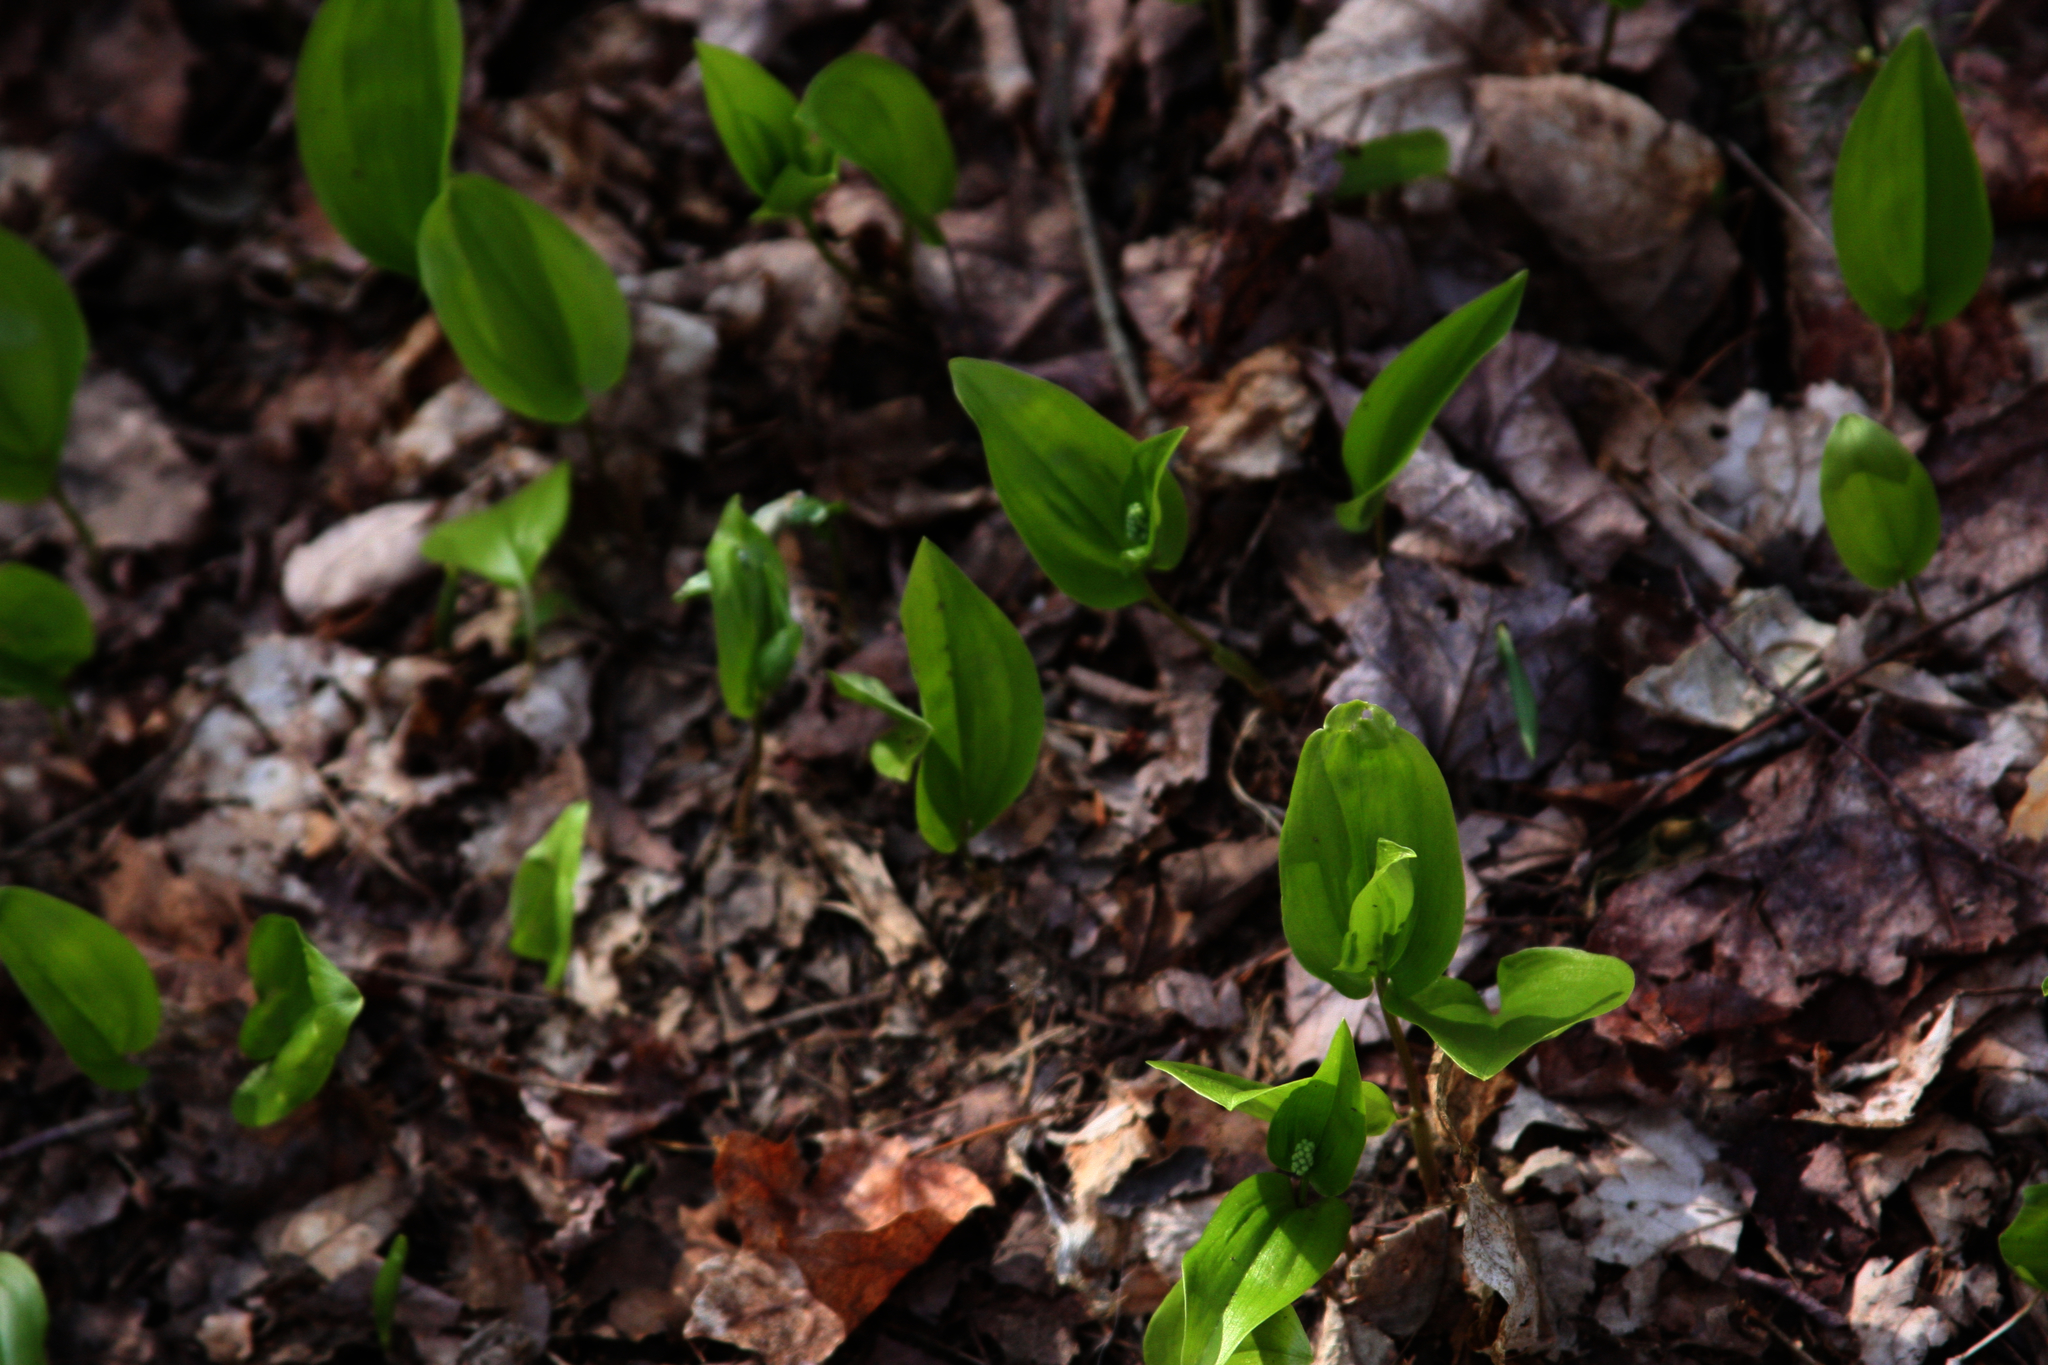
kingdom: Plantae
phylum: Tracheophyta
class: Liliopsida
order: Asparagales
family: Asparagaceae
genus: Maianthemum
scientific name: Maianthemum canadense
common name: False lily-of-the-valley
